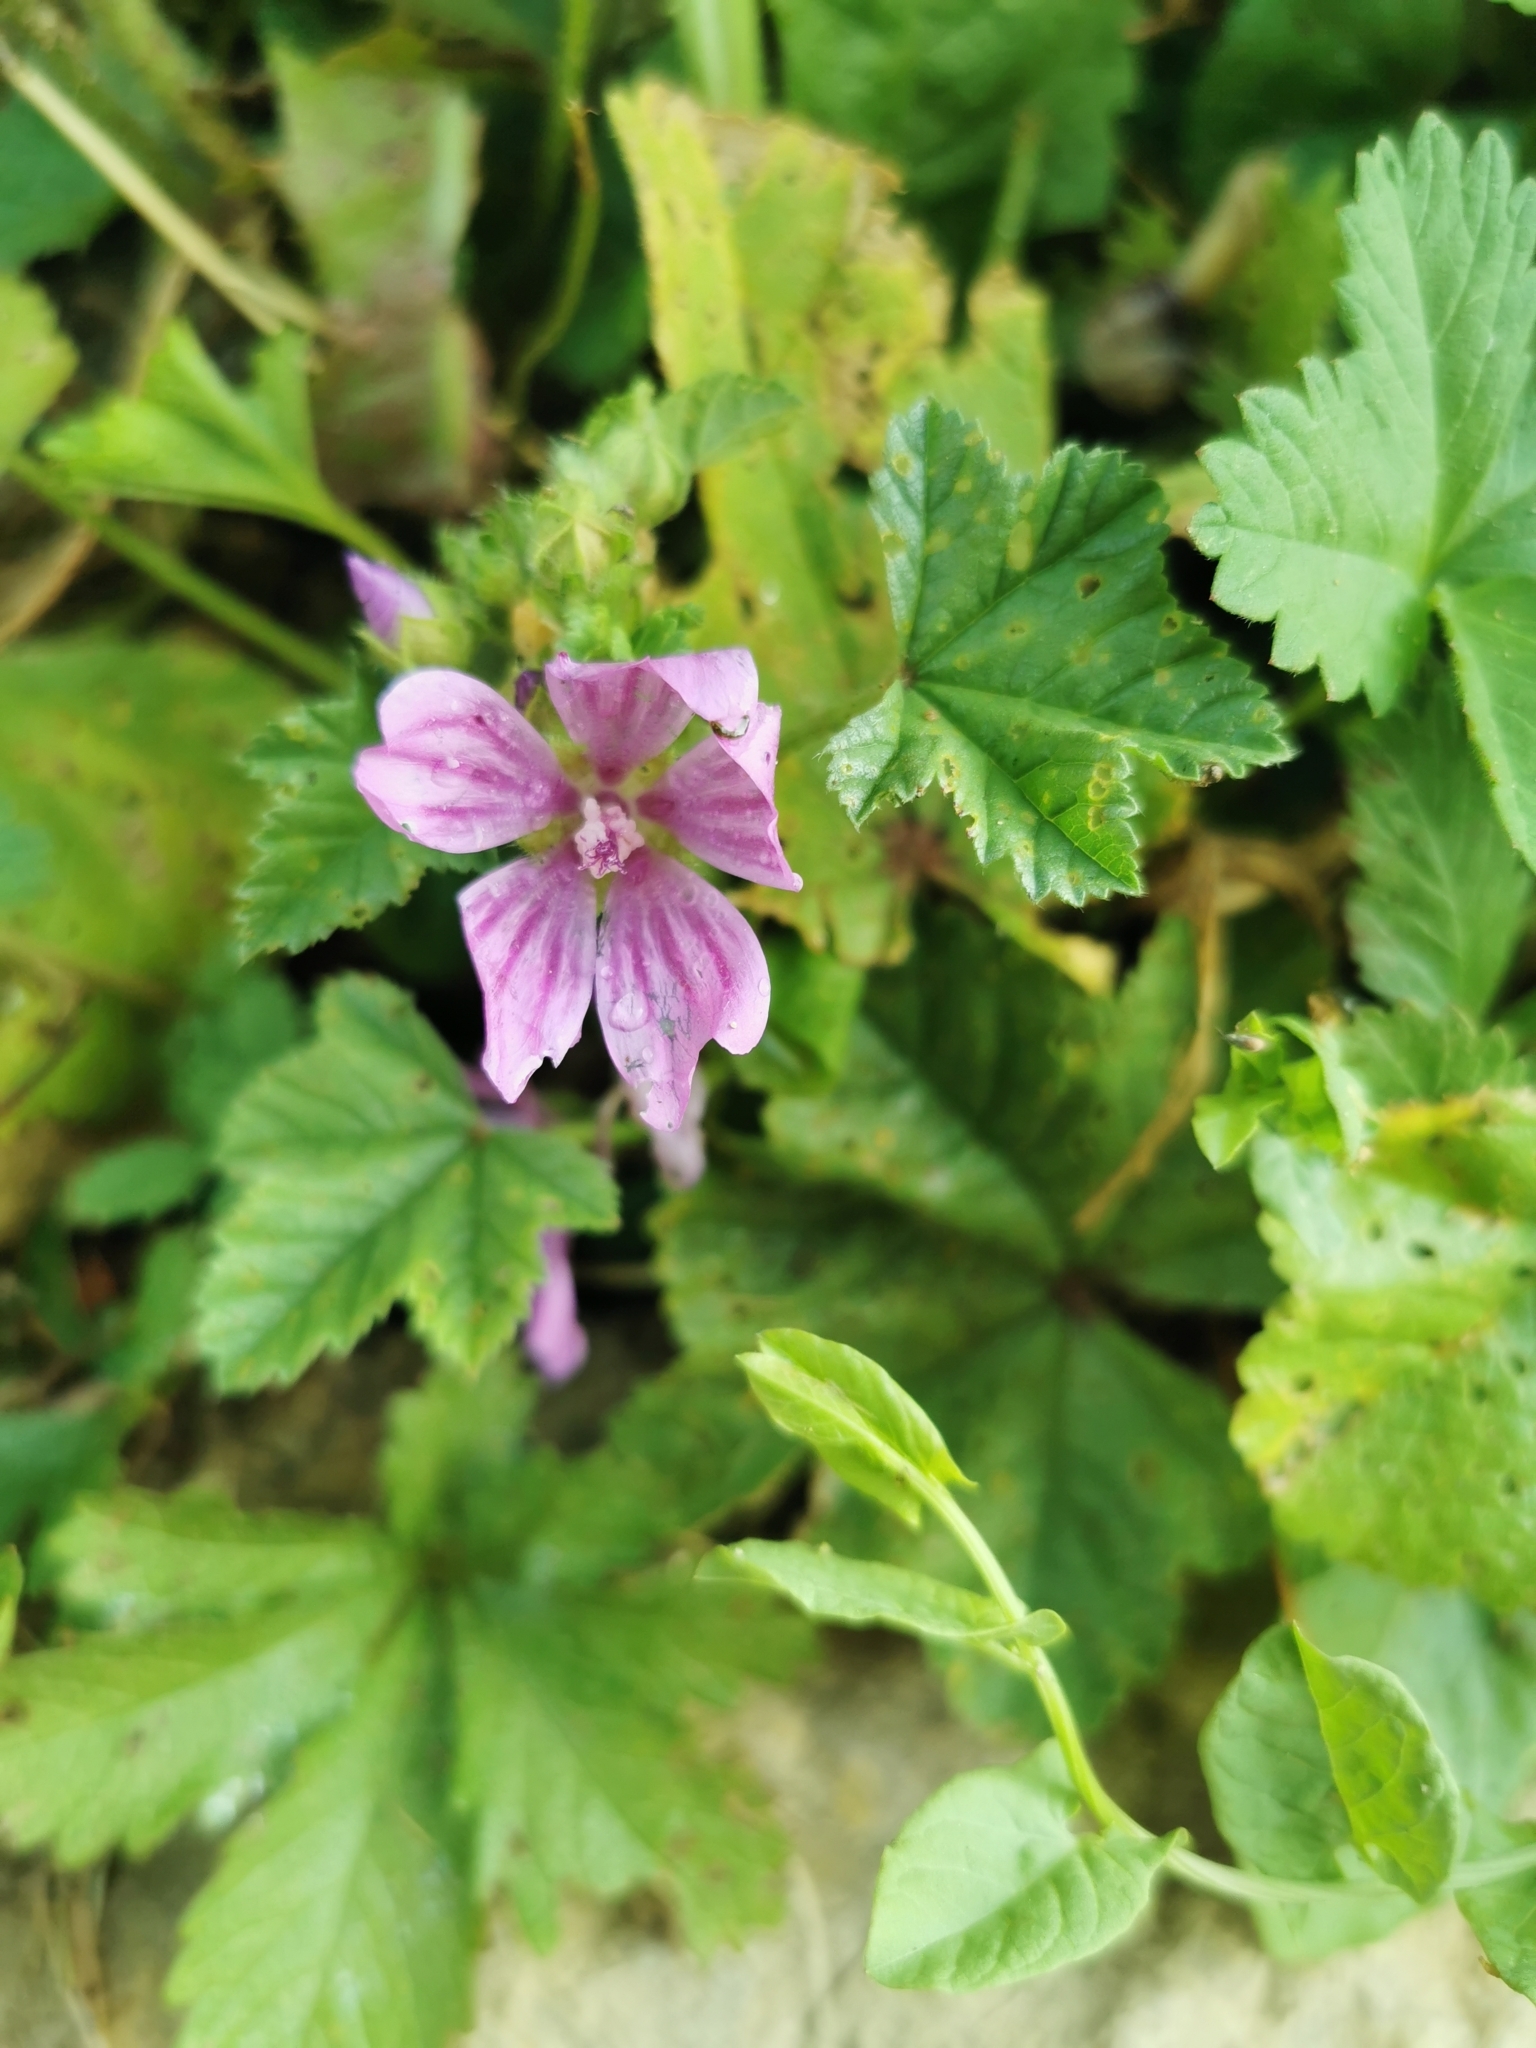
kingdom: Plantae
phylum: Tracheophyta
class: Magnoliopsida
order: Malvales
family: Malvaceae
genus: Malva
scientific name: Malva sylvestris
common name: Common mallow
